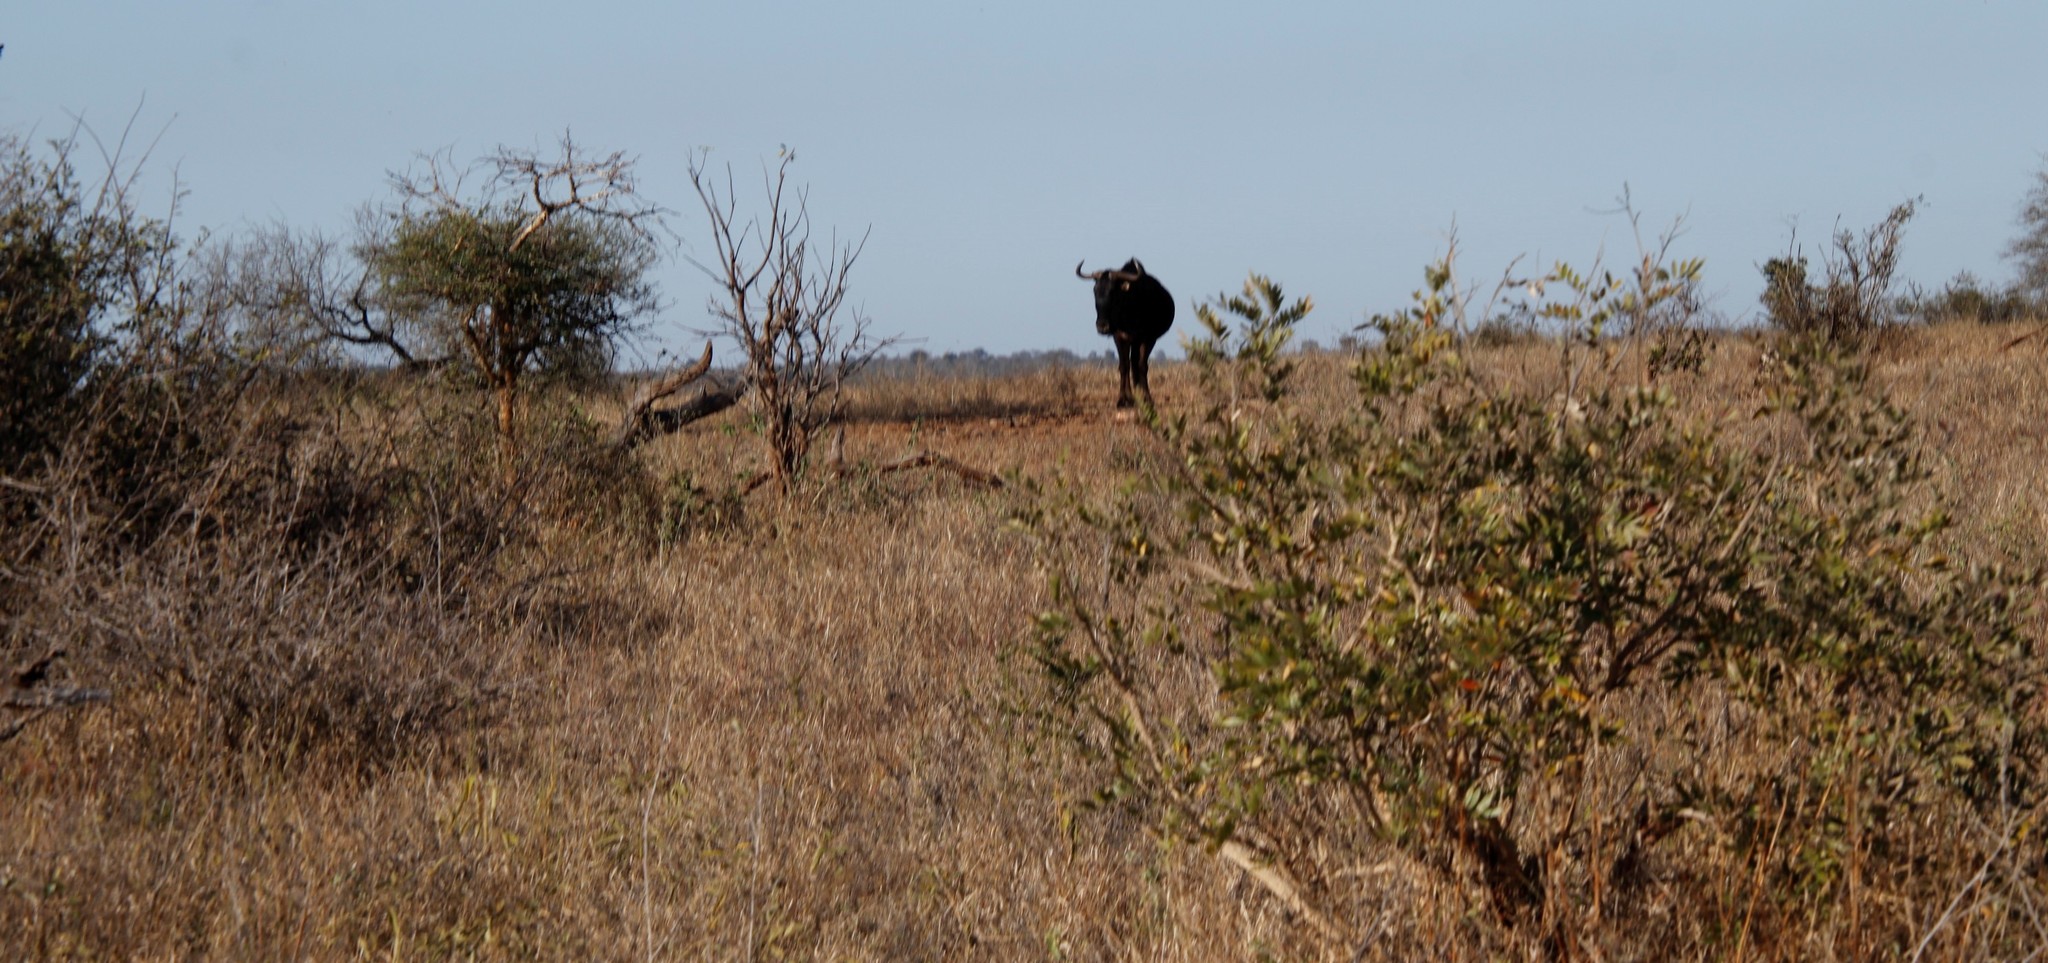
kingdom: Animalia
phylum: Chordata
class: Mammalia
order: Artiodactyla
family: Bovidae
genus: Connochaetes
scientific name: Connochaetes taurinus
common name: Blue wildebeest
